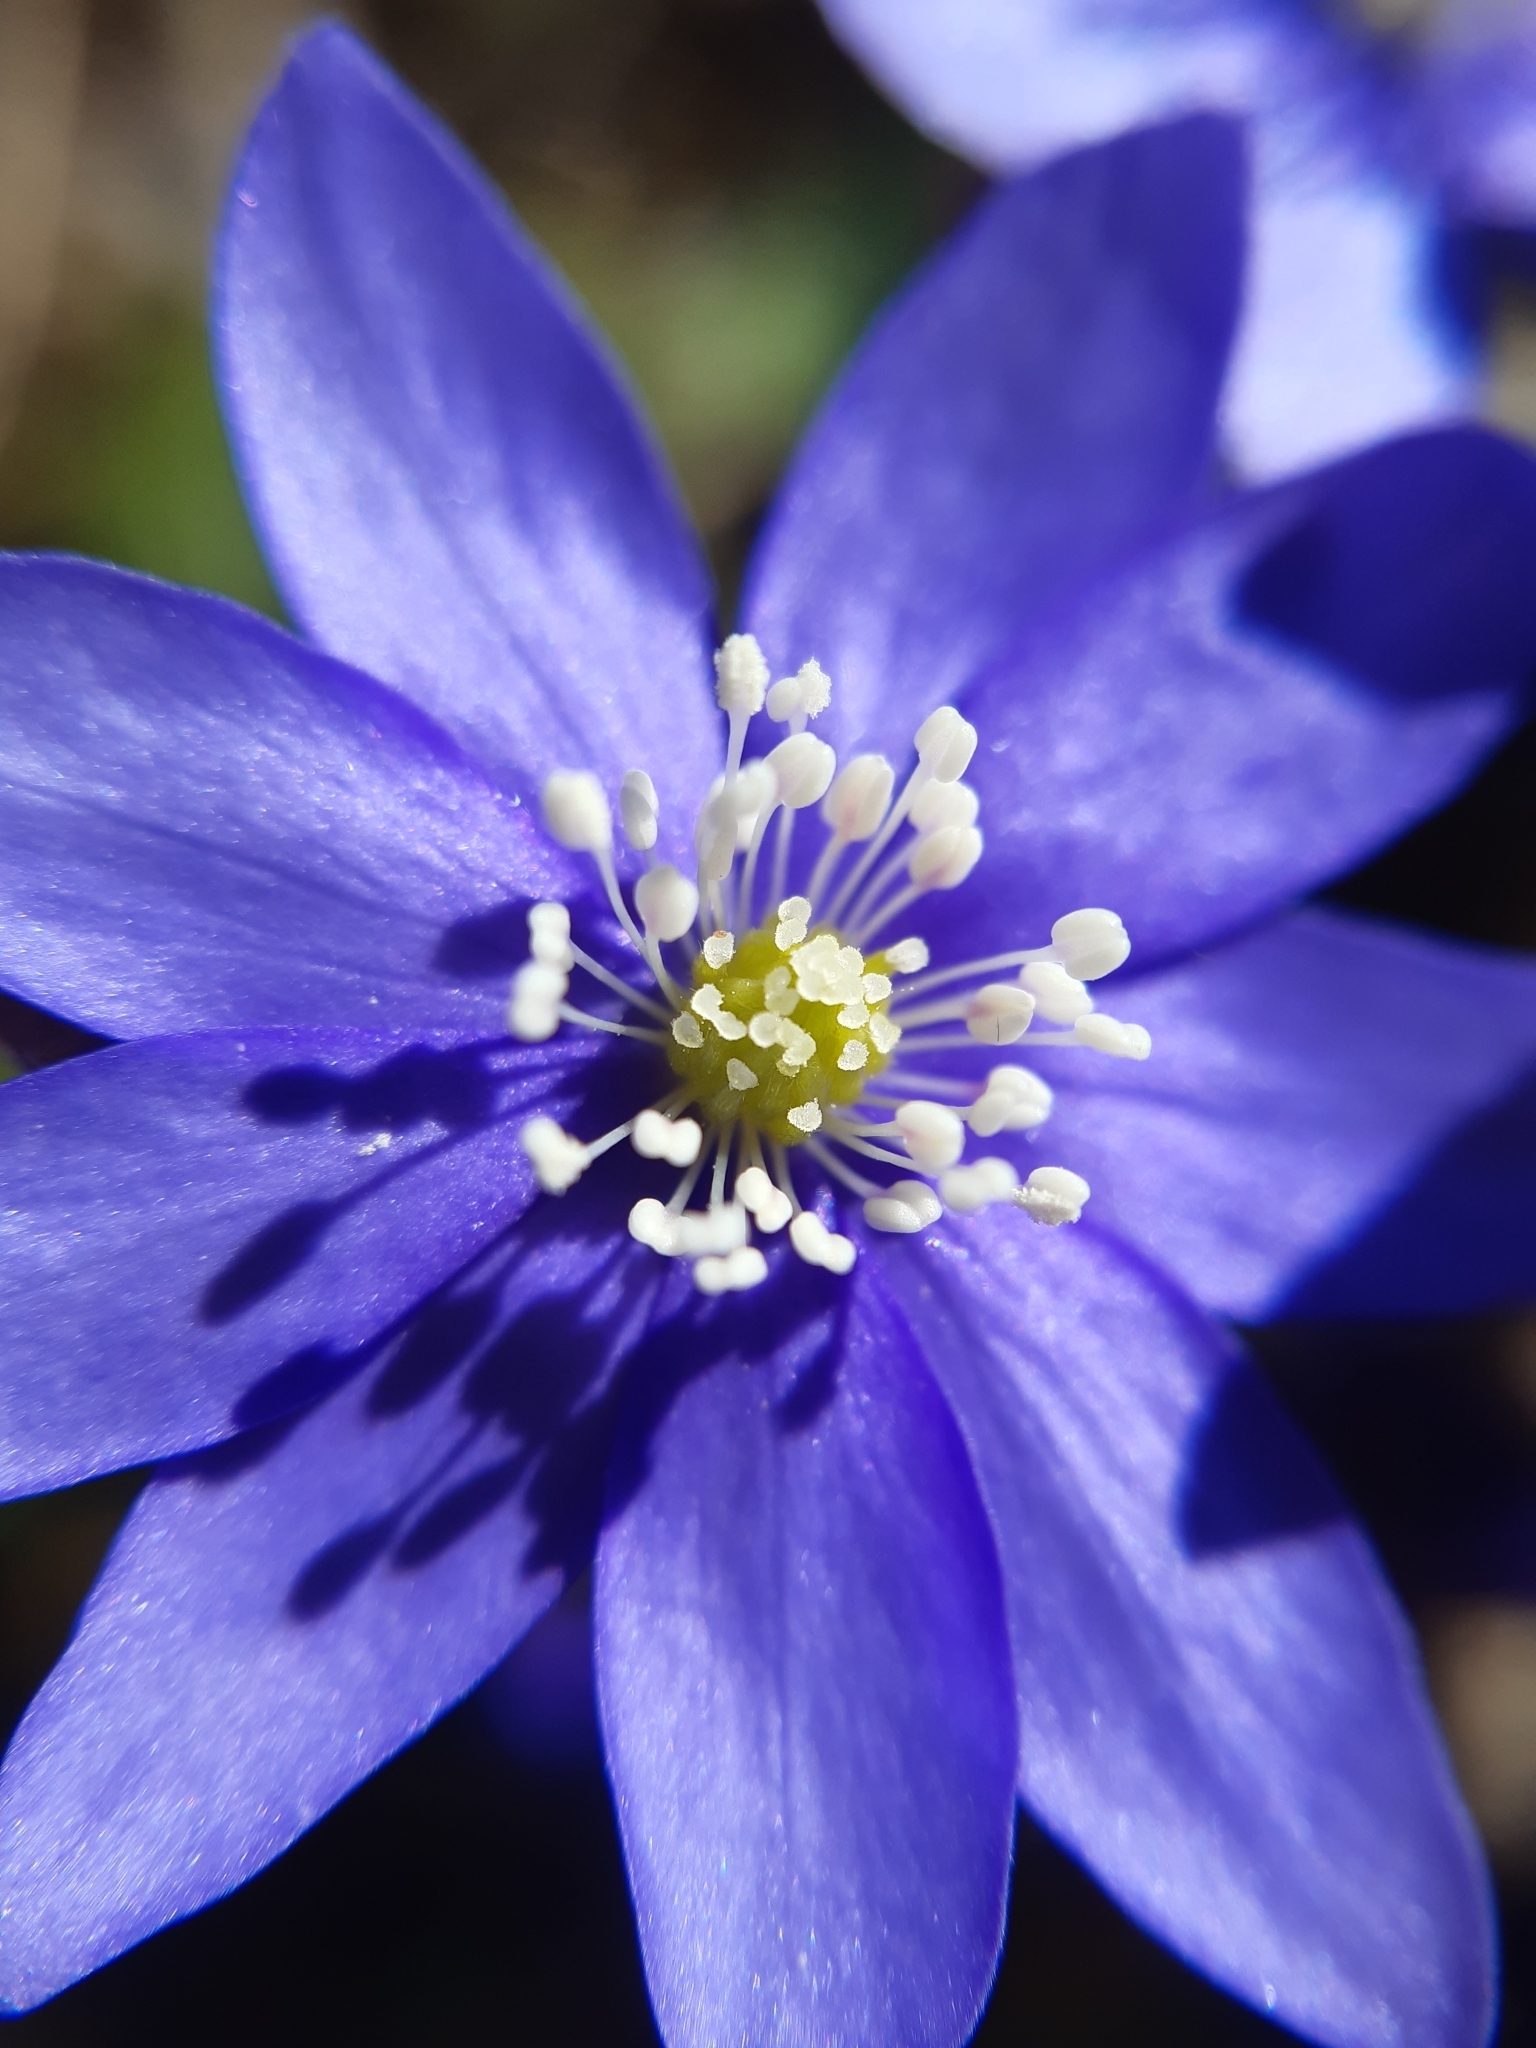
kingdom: Plantae
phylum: Tracheophyta
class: Magnoliopsida
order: Ranunculales
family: Ranunculaceae
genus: Hepatica
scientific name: Hepatica nobilis
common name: Liverleaf
